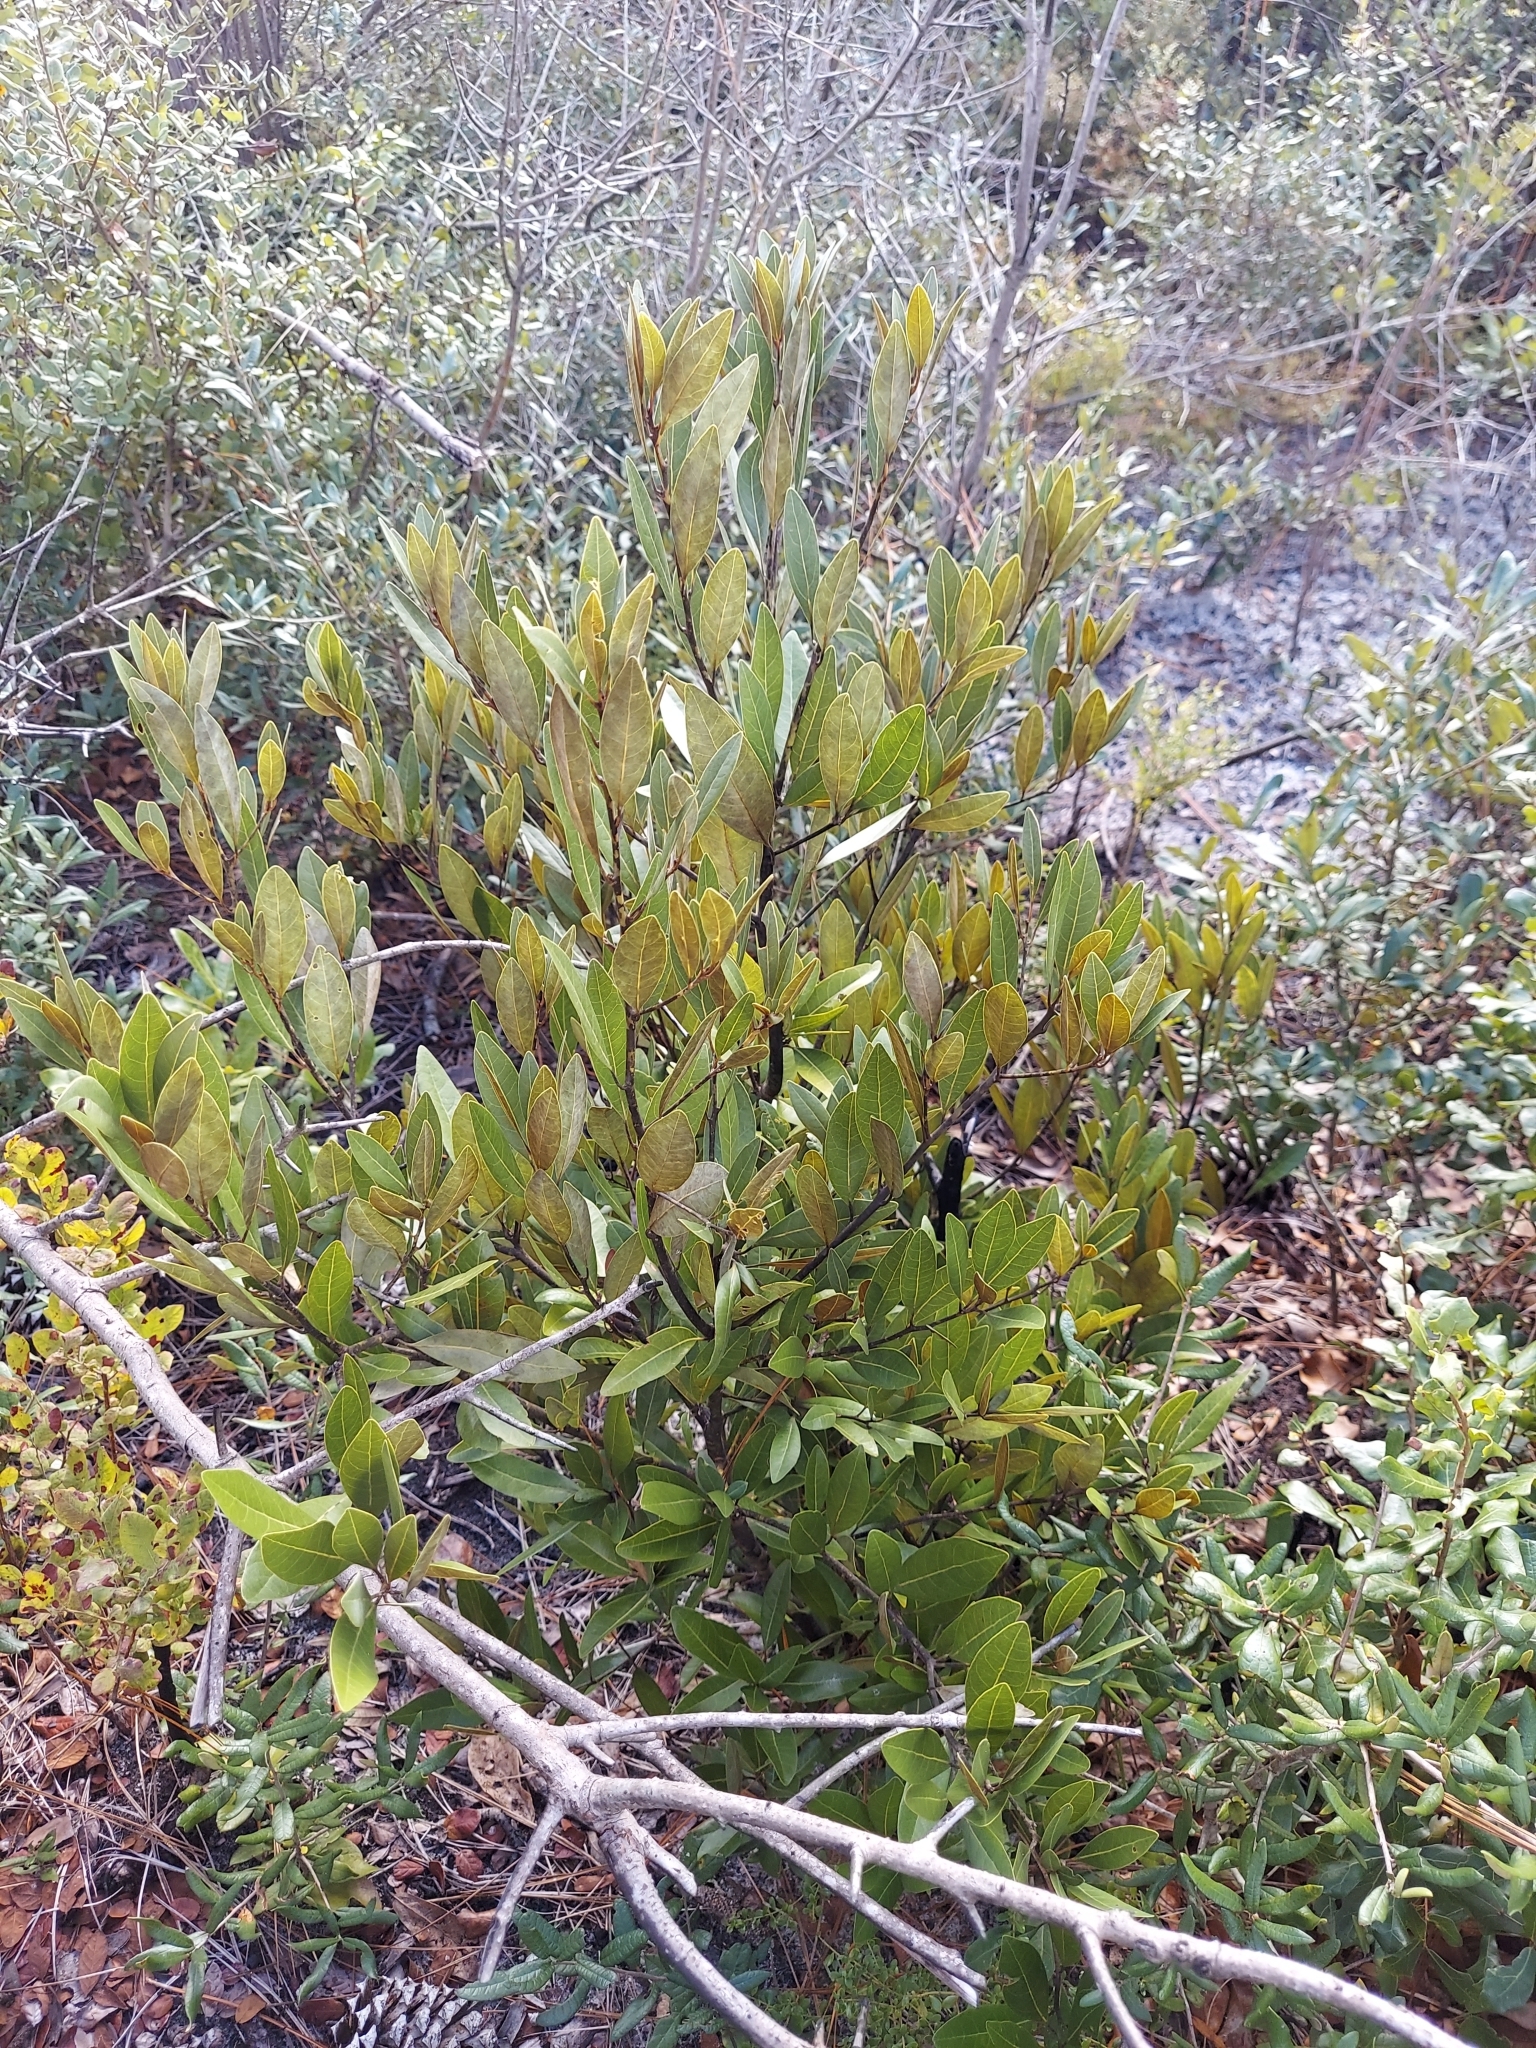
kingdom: Plantae
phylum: Tracheophyta
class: Magnoliopsida
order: Laurales
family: Lauraceae
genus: Persea
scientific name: Persea humilis
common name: Silkbay
